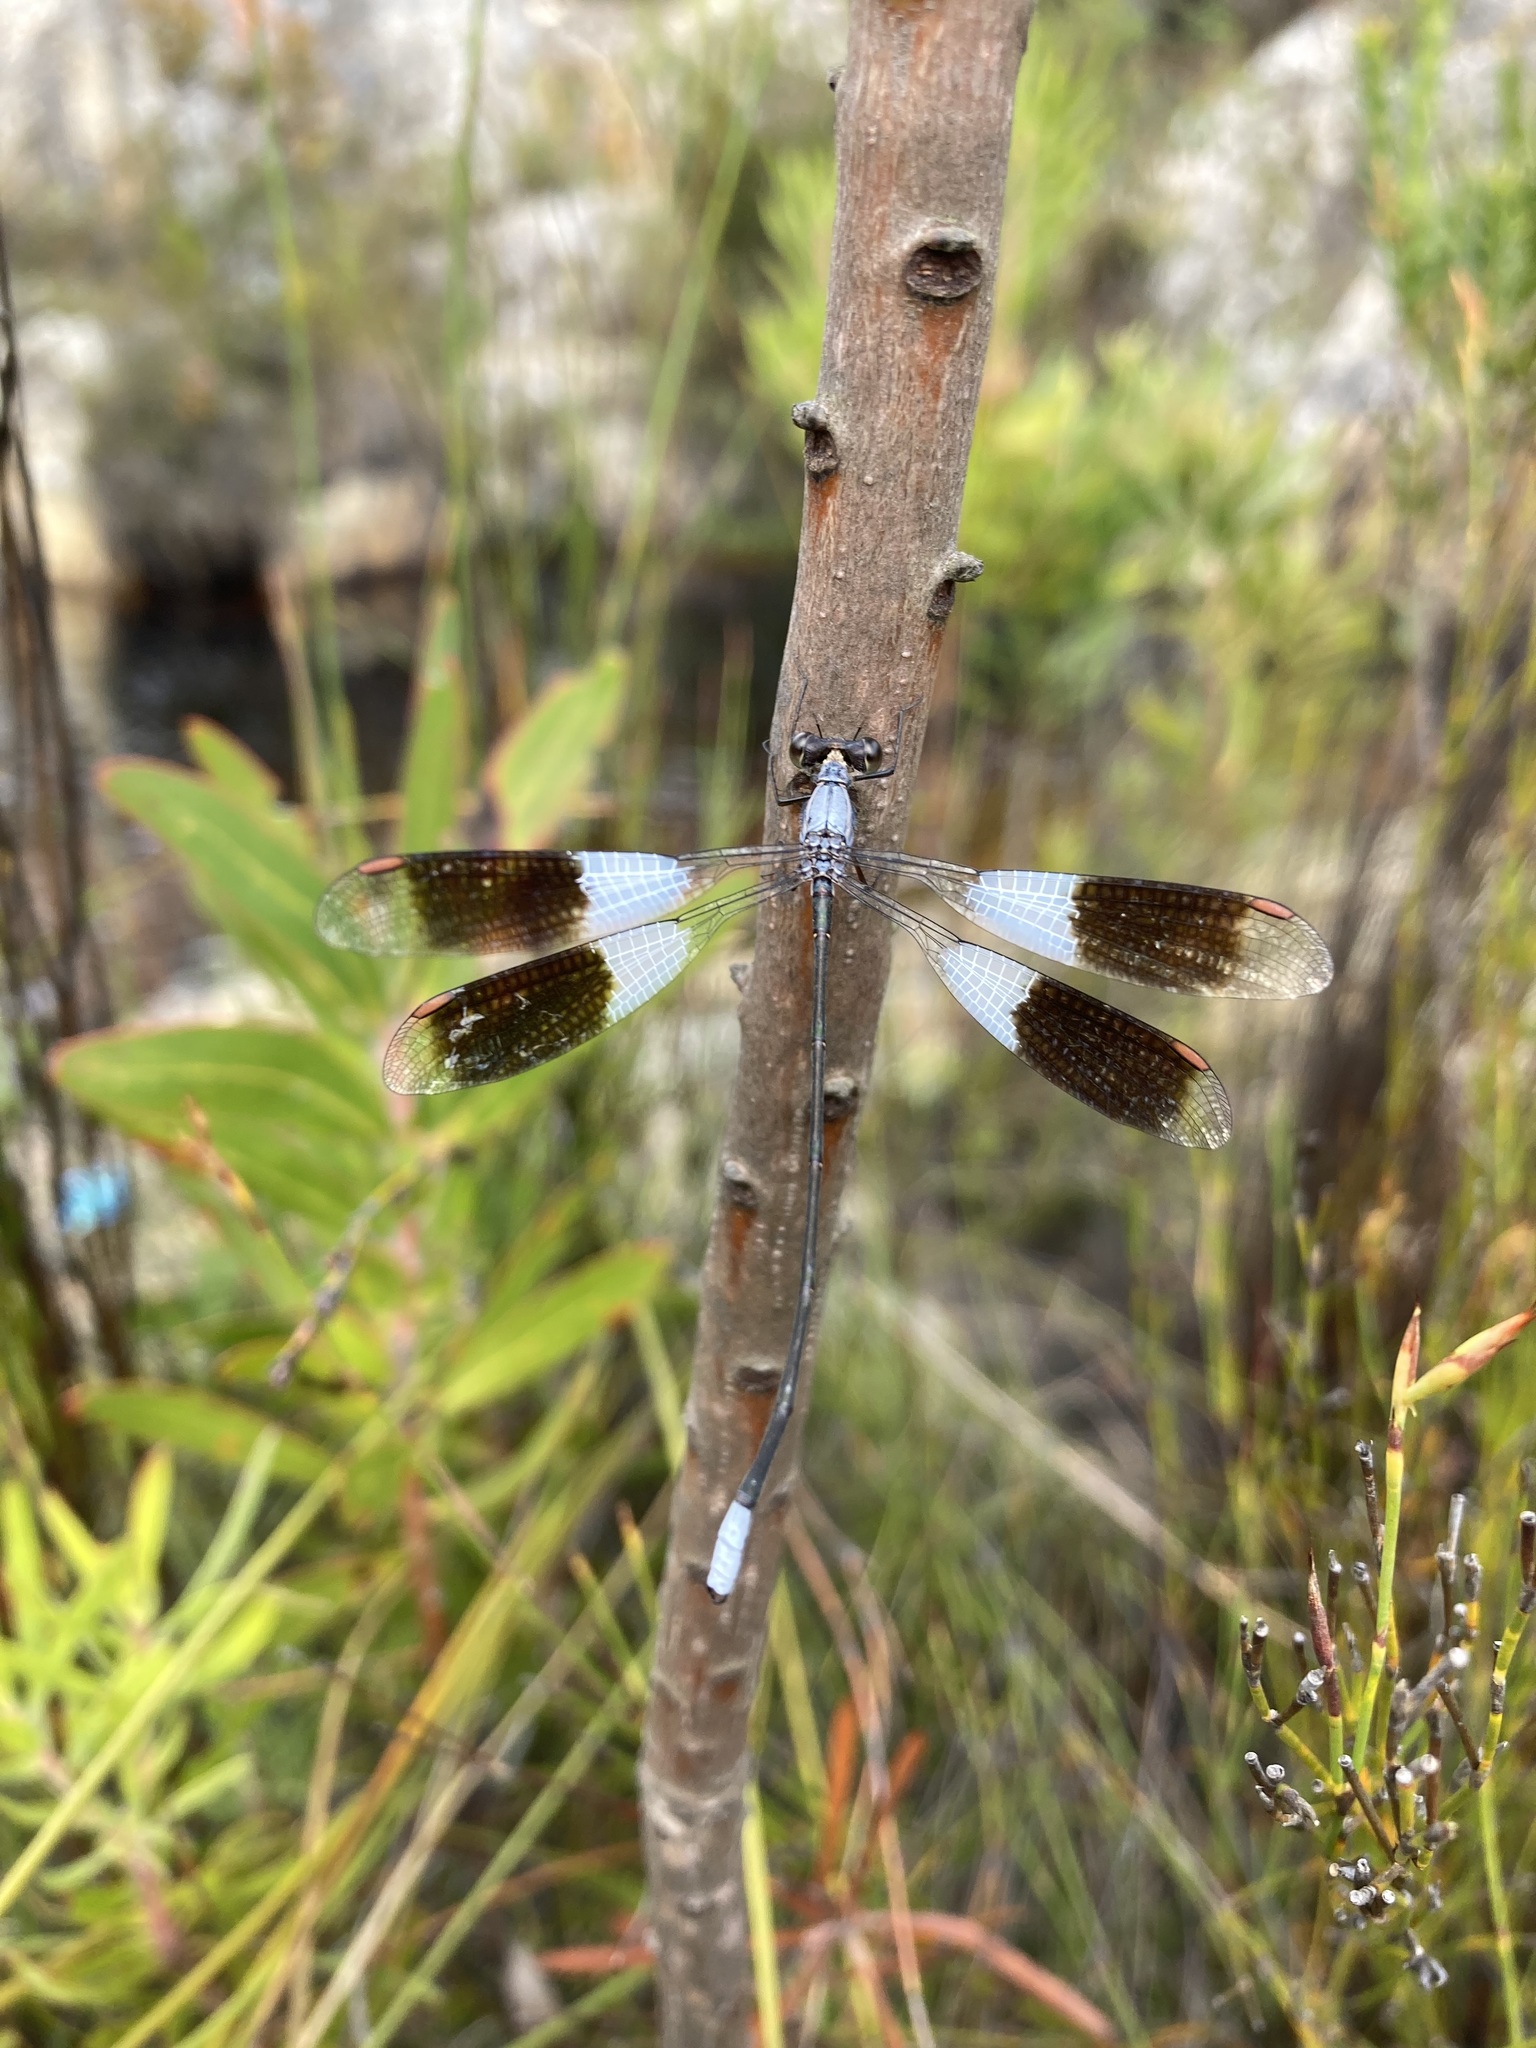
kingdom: Animalia
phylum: Arthropoda
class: Insecta
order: Odonata
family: Synlestidae
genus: Chlorolestes
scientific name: Chlorolestes umbratus
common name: White malachite
